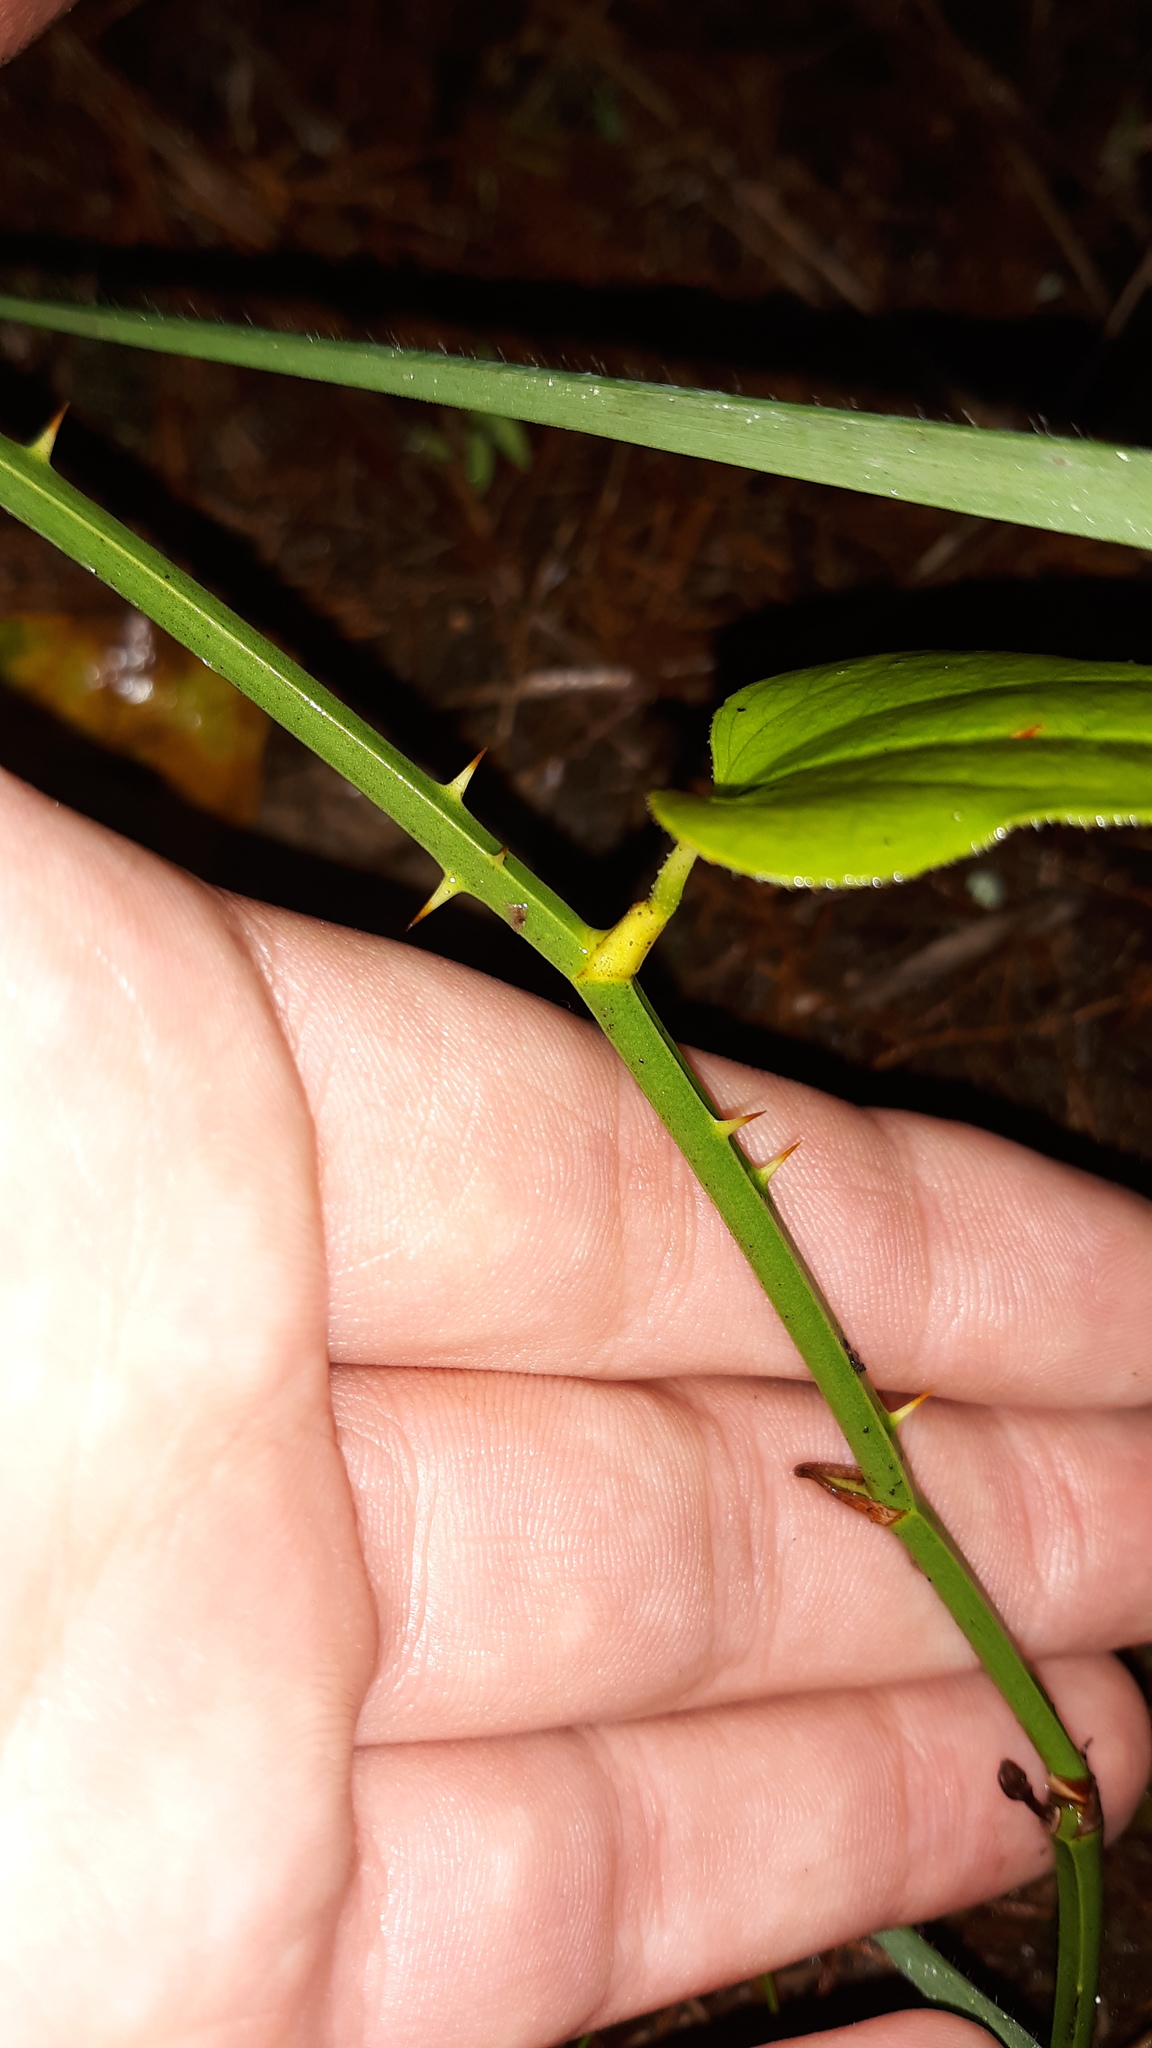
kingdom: Plantae
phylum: Tracheophyta
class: Liliopsida
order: Liliales
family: Smilacaceae
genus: Smilax
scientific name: Smilax rotundifolia
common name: Bullbriar
